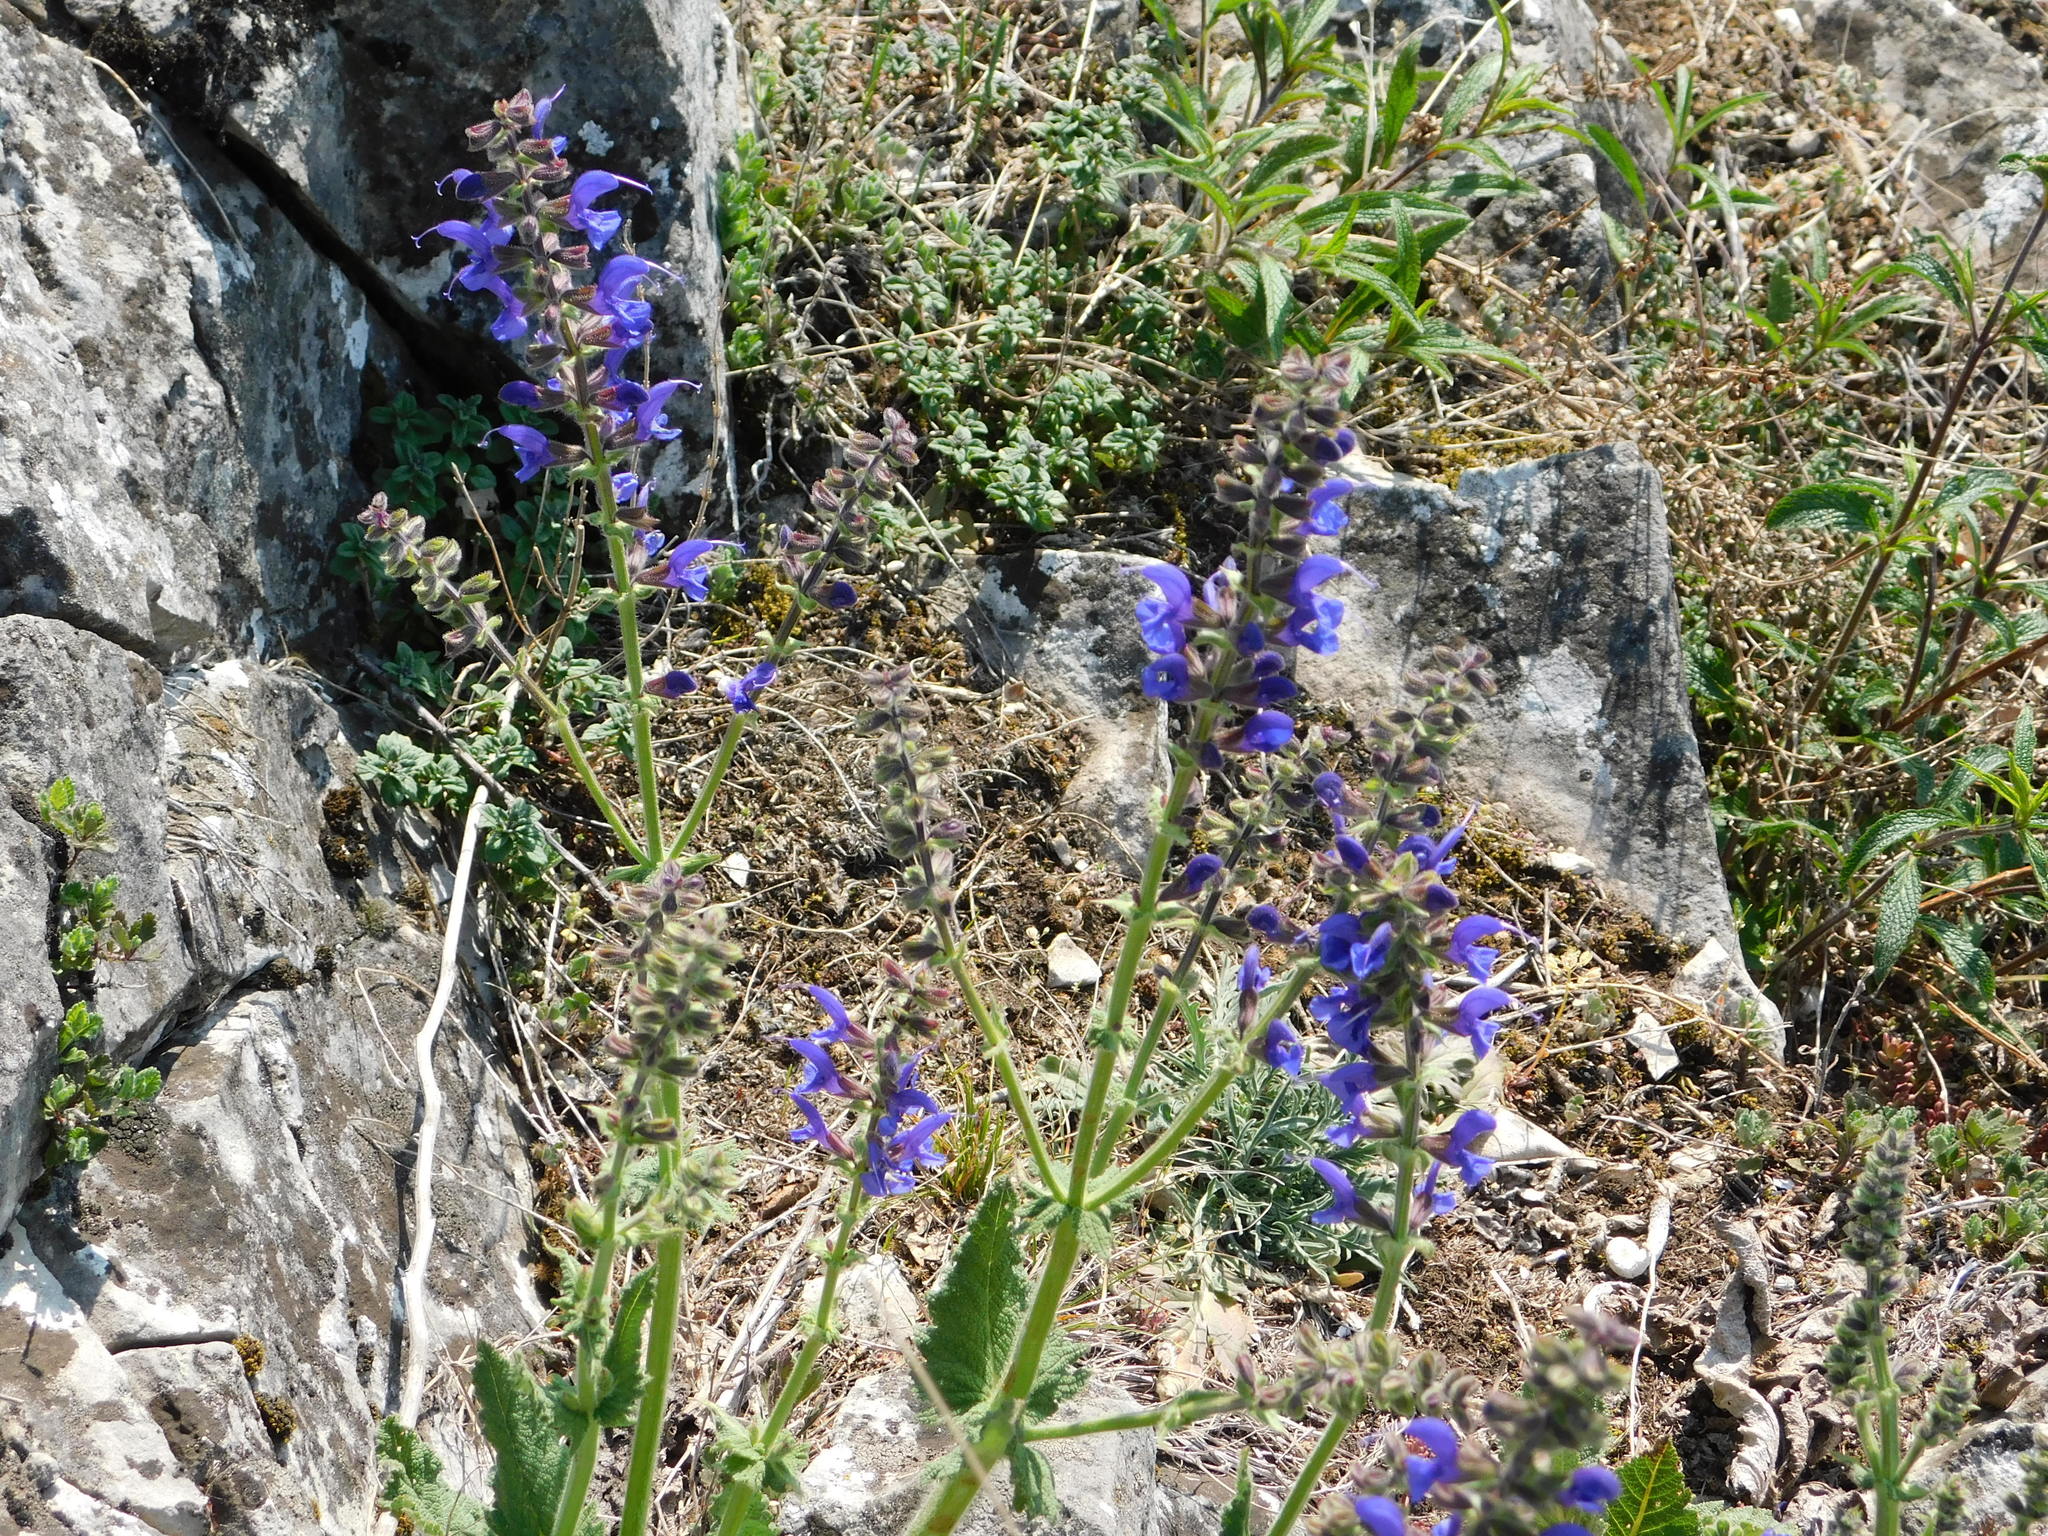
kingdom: Plantae
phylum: Tracheophyta
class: Magnoliopsida
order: Lamiales
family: Lamiaceae
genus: Salvia
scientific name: Salvia pratensis
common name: Meadow sage
